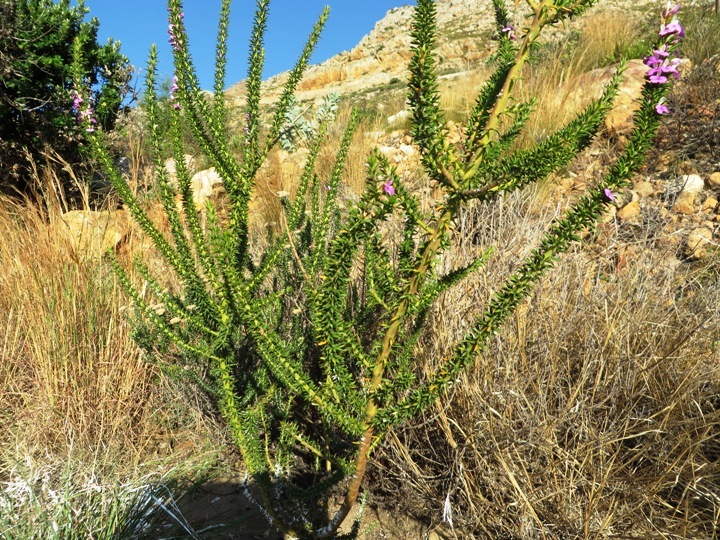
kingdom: Plantae
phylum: Tracheophyta
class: Magnoliopsida
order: Fabales
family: Polygalaceae
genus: Muraltia
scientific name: Muraltia heisteria
